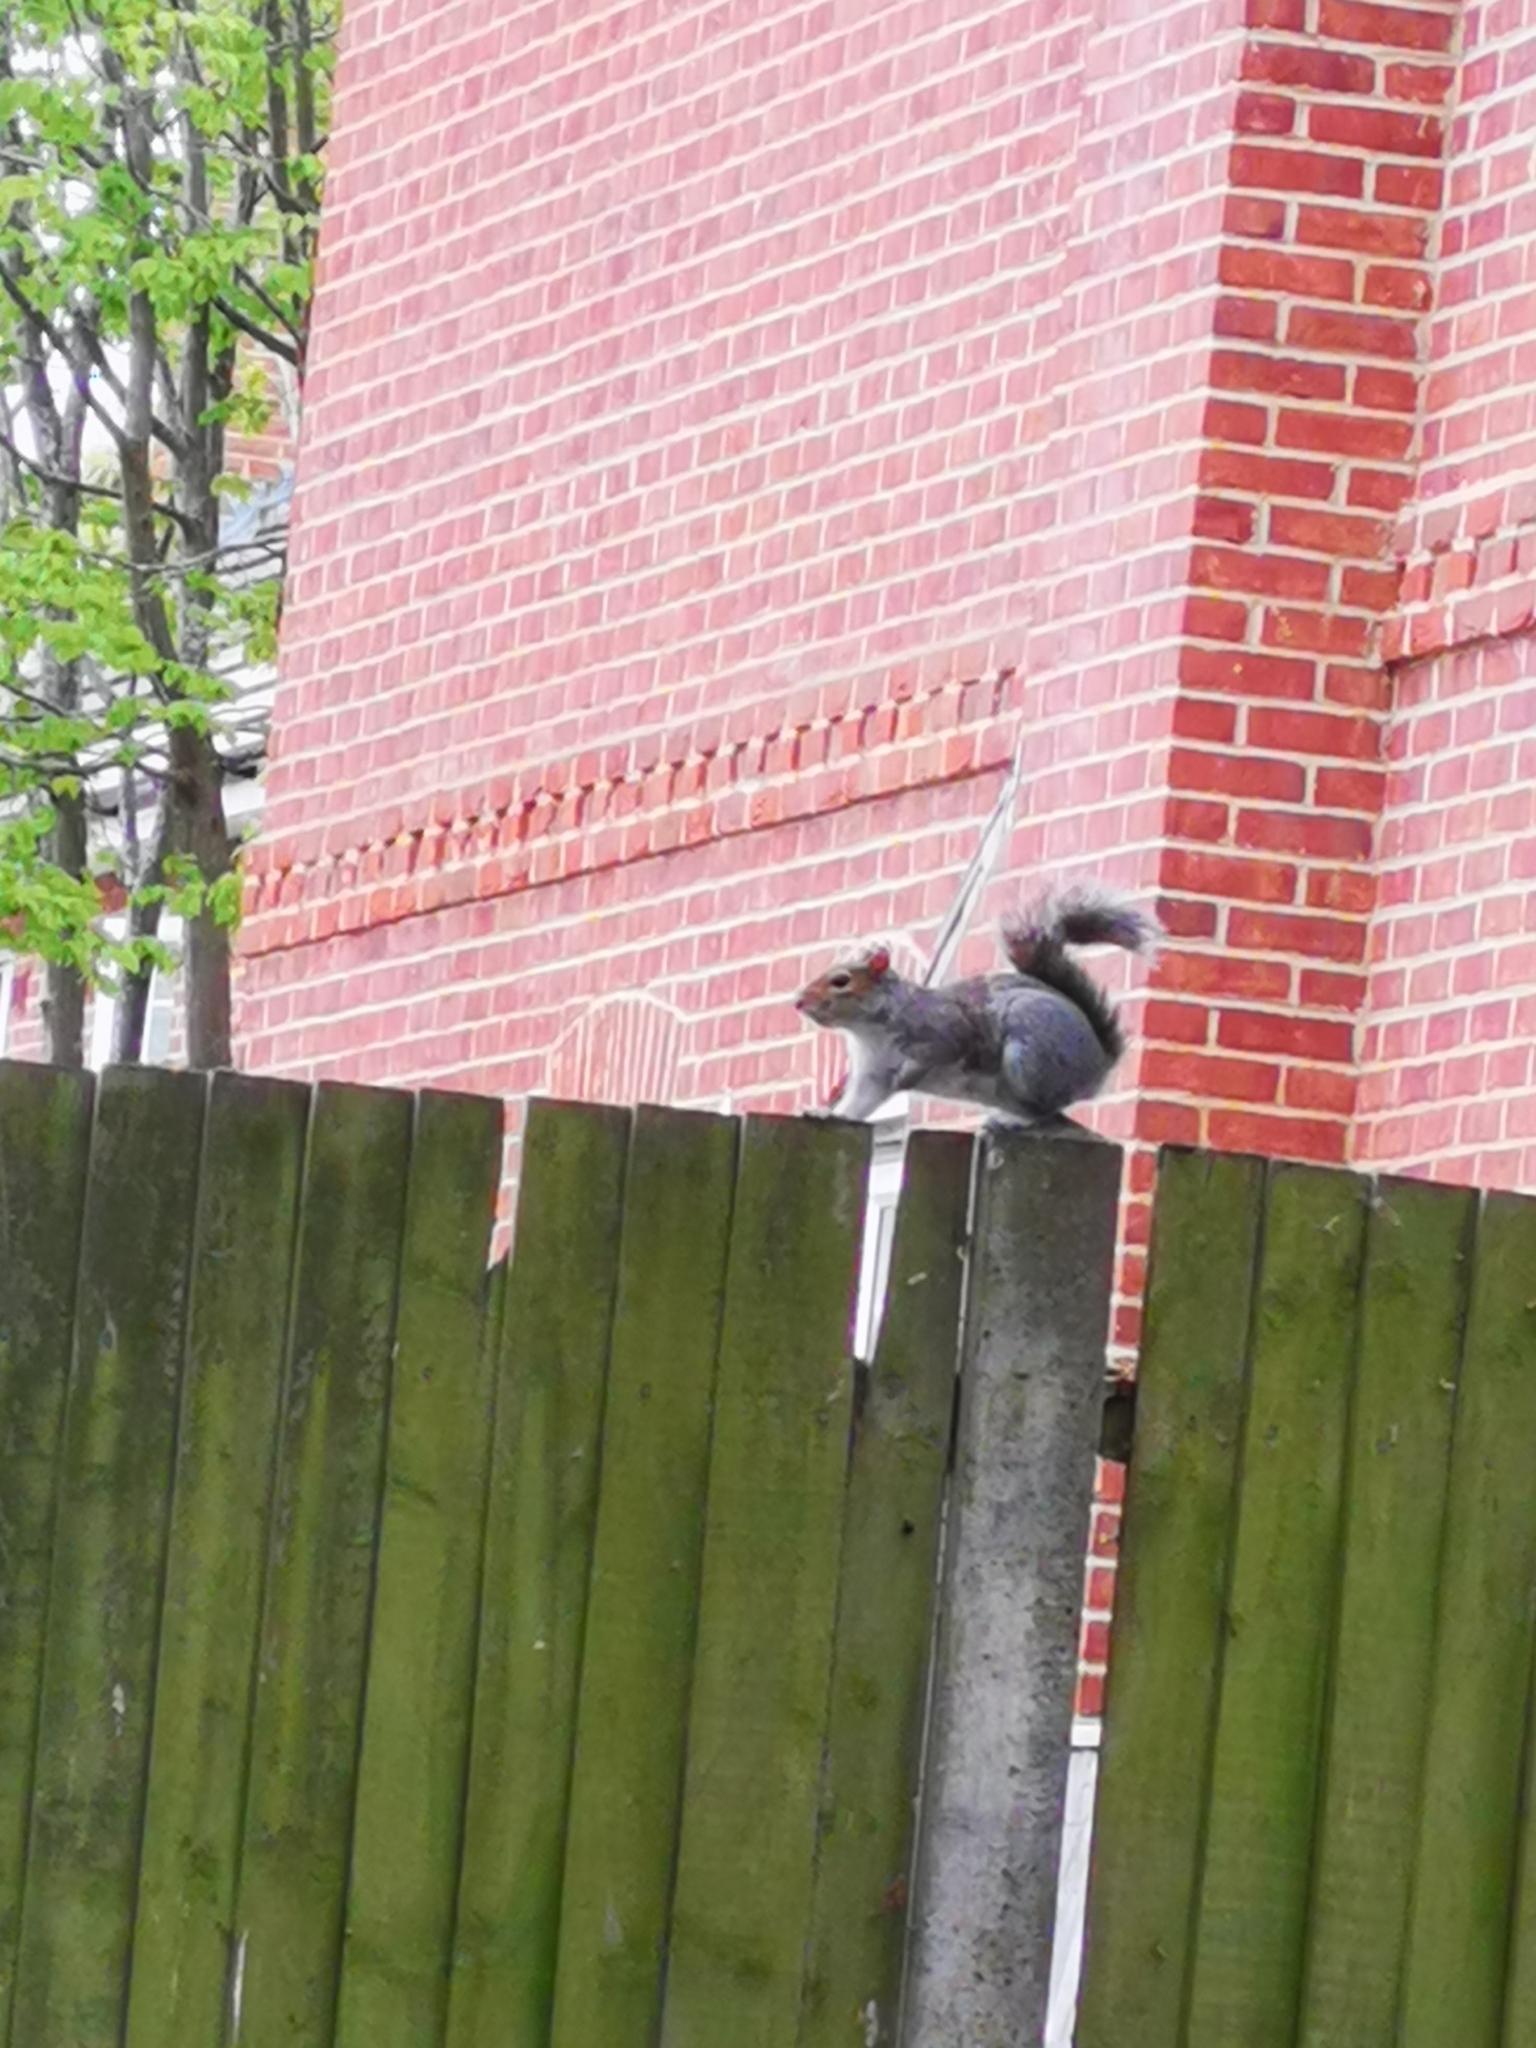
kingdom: Animalia
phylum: Chordata
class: Mammalia
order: Rodentia
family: Sciuridae
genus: Sciurus
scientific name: Sciurus carolinensis
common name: Eastern gray squirrel
